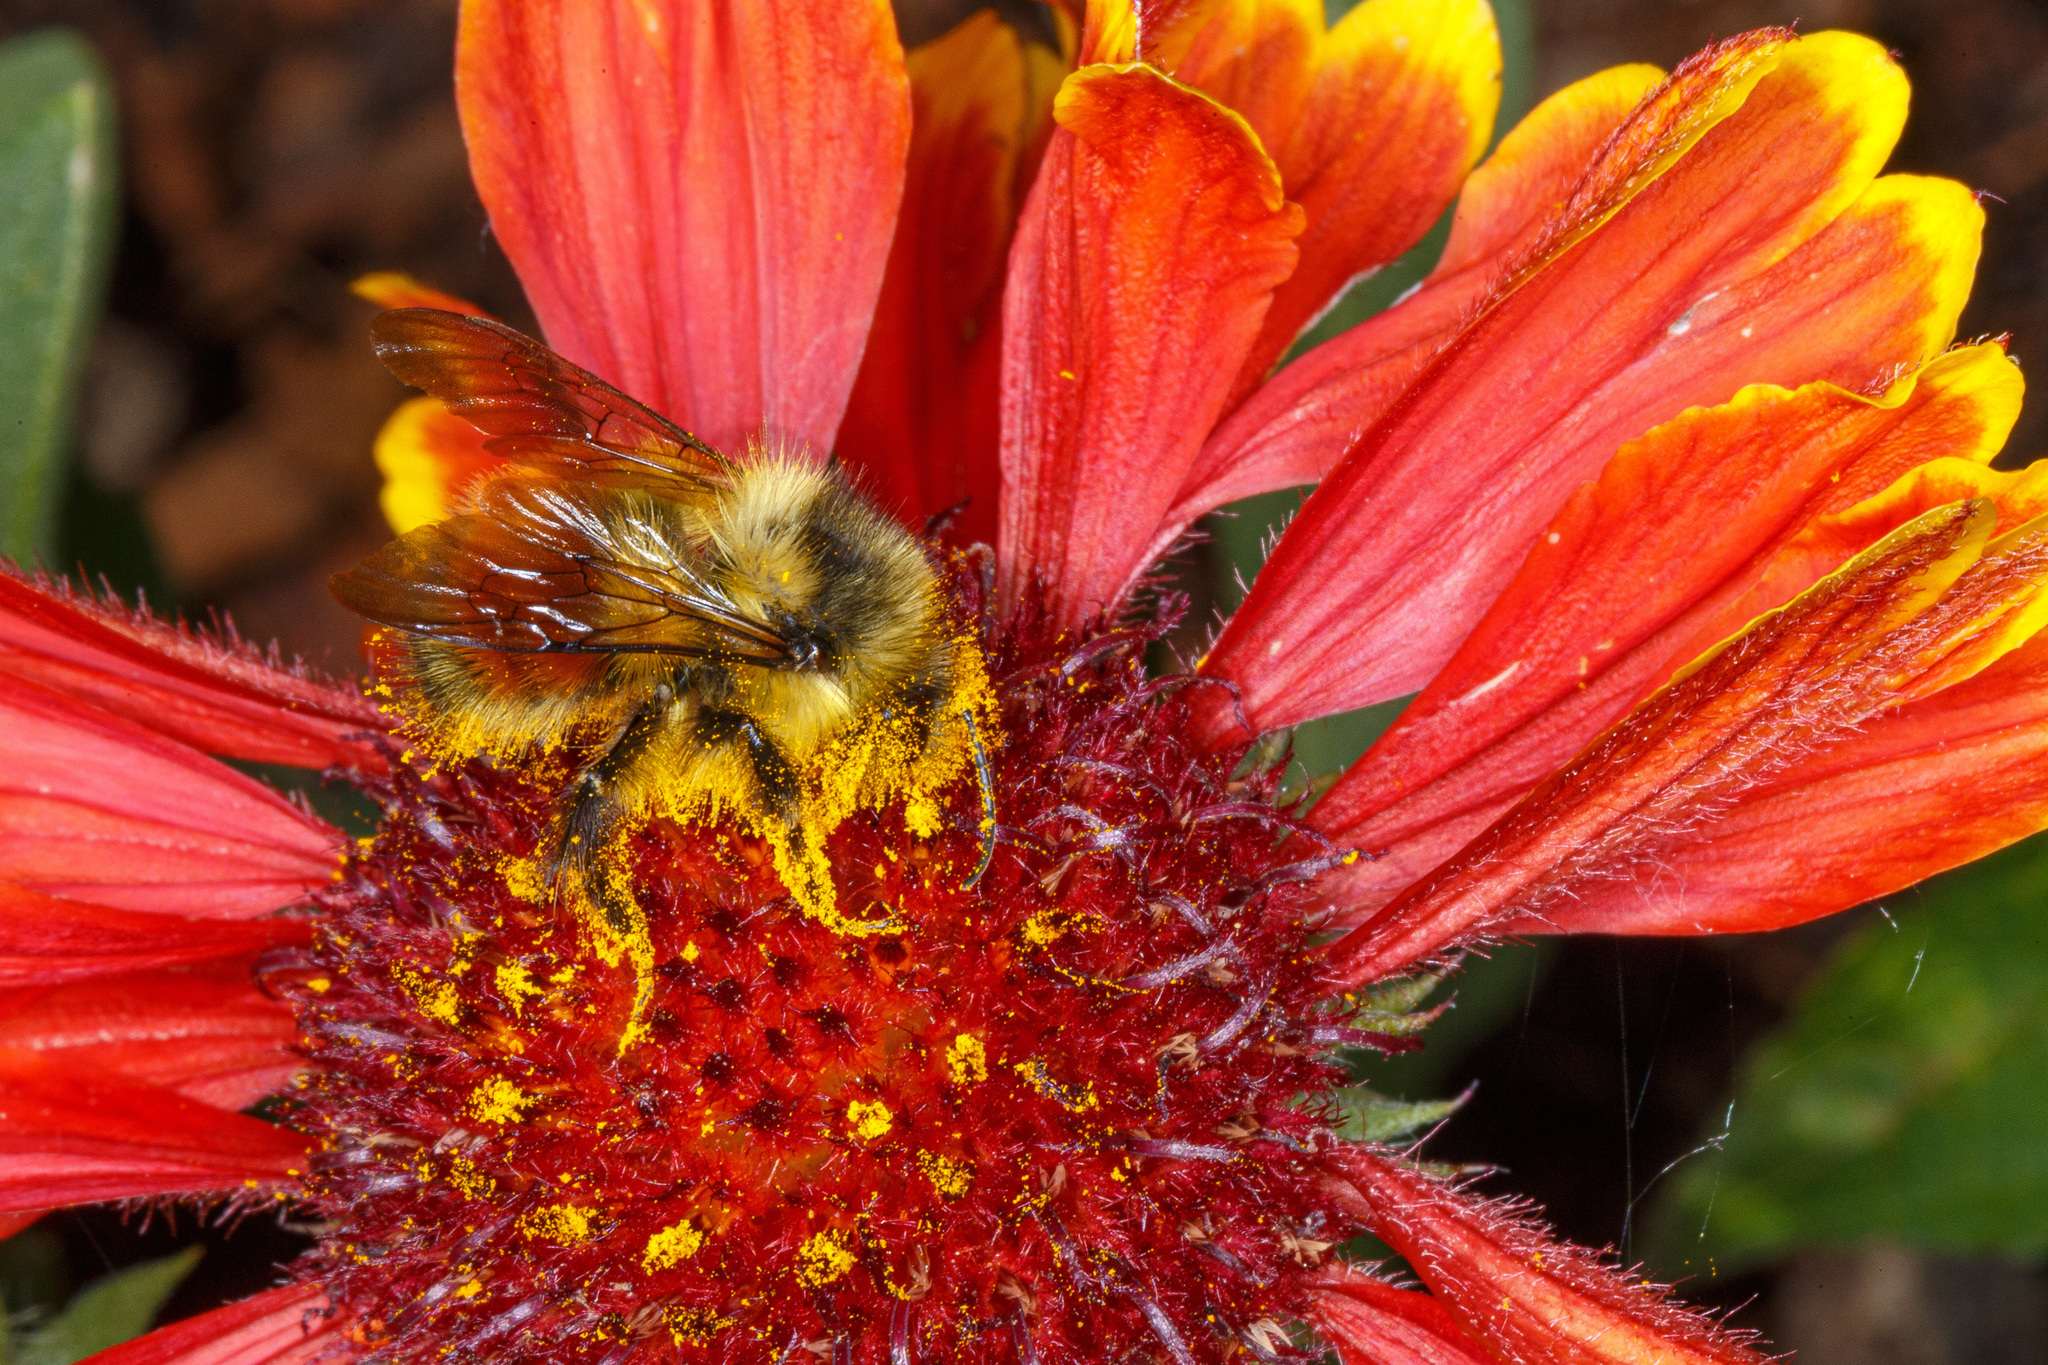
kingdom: Animalia
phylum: Arthropoda
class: Insecta
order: Hymenoptera
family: Apidae
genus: Bombus
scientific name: Bombus melanopygus
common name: Black tail bumble bee
